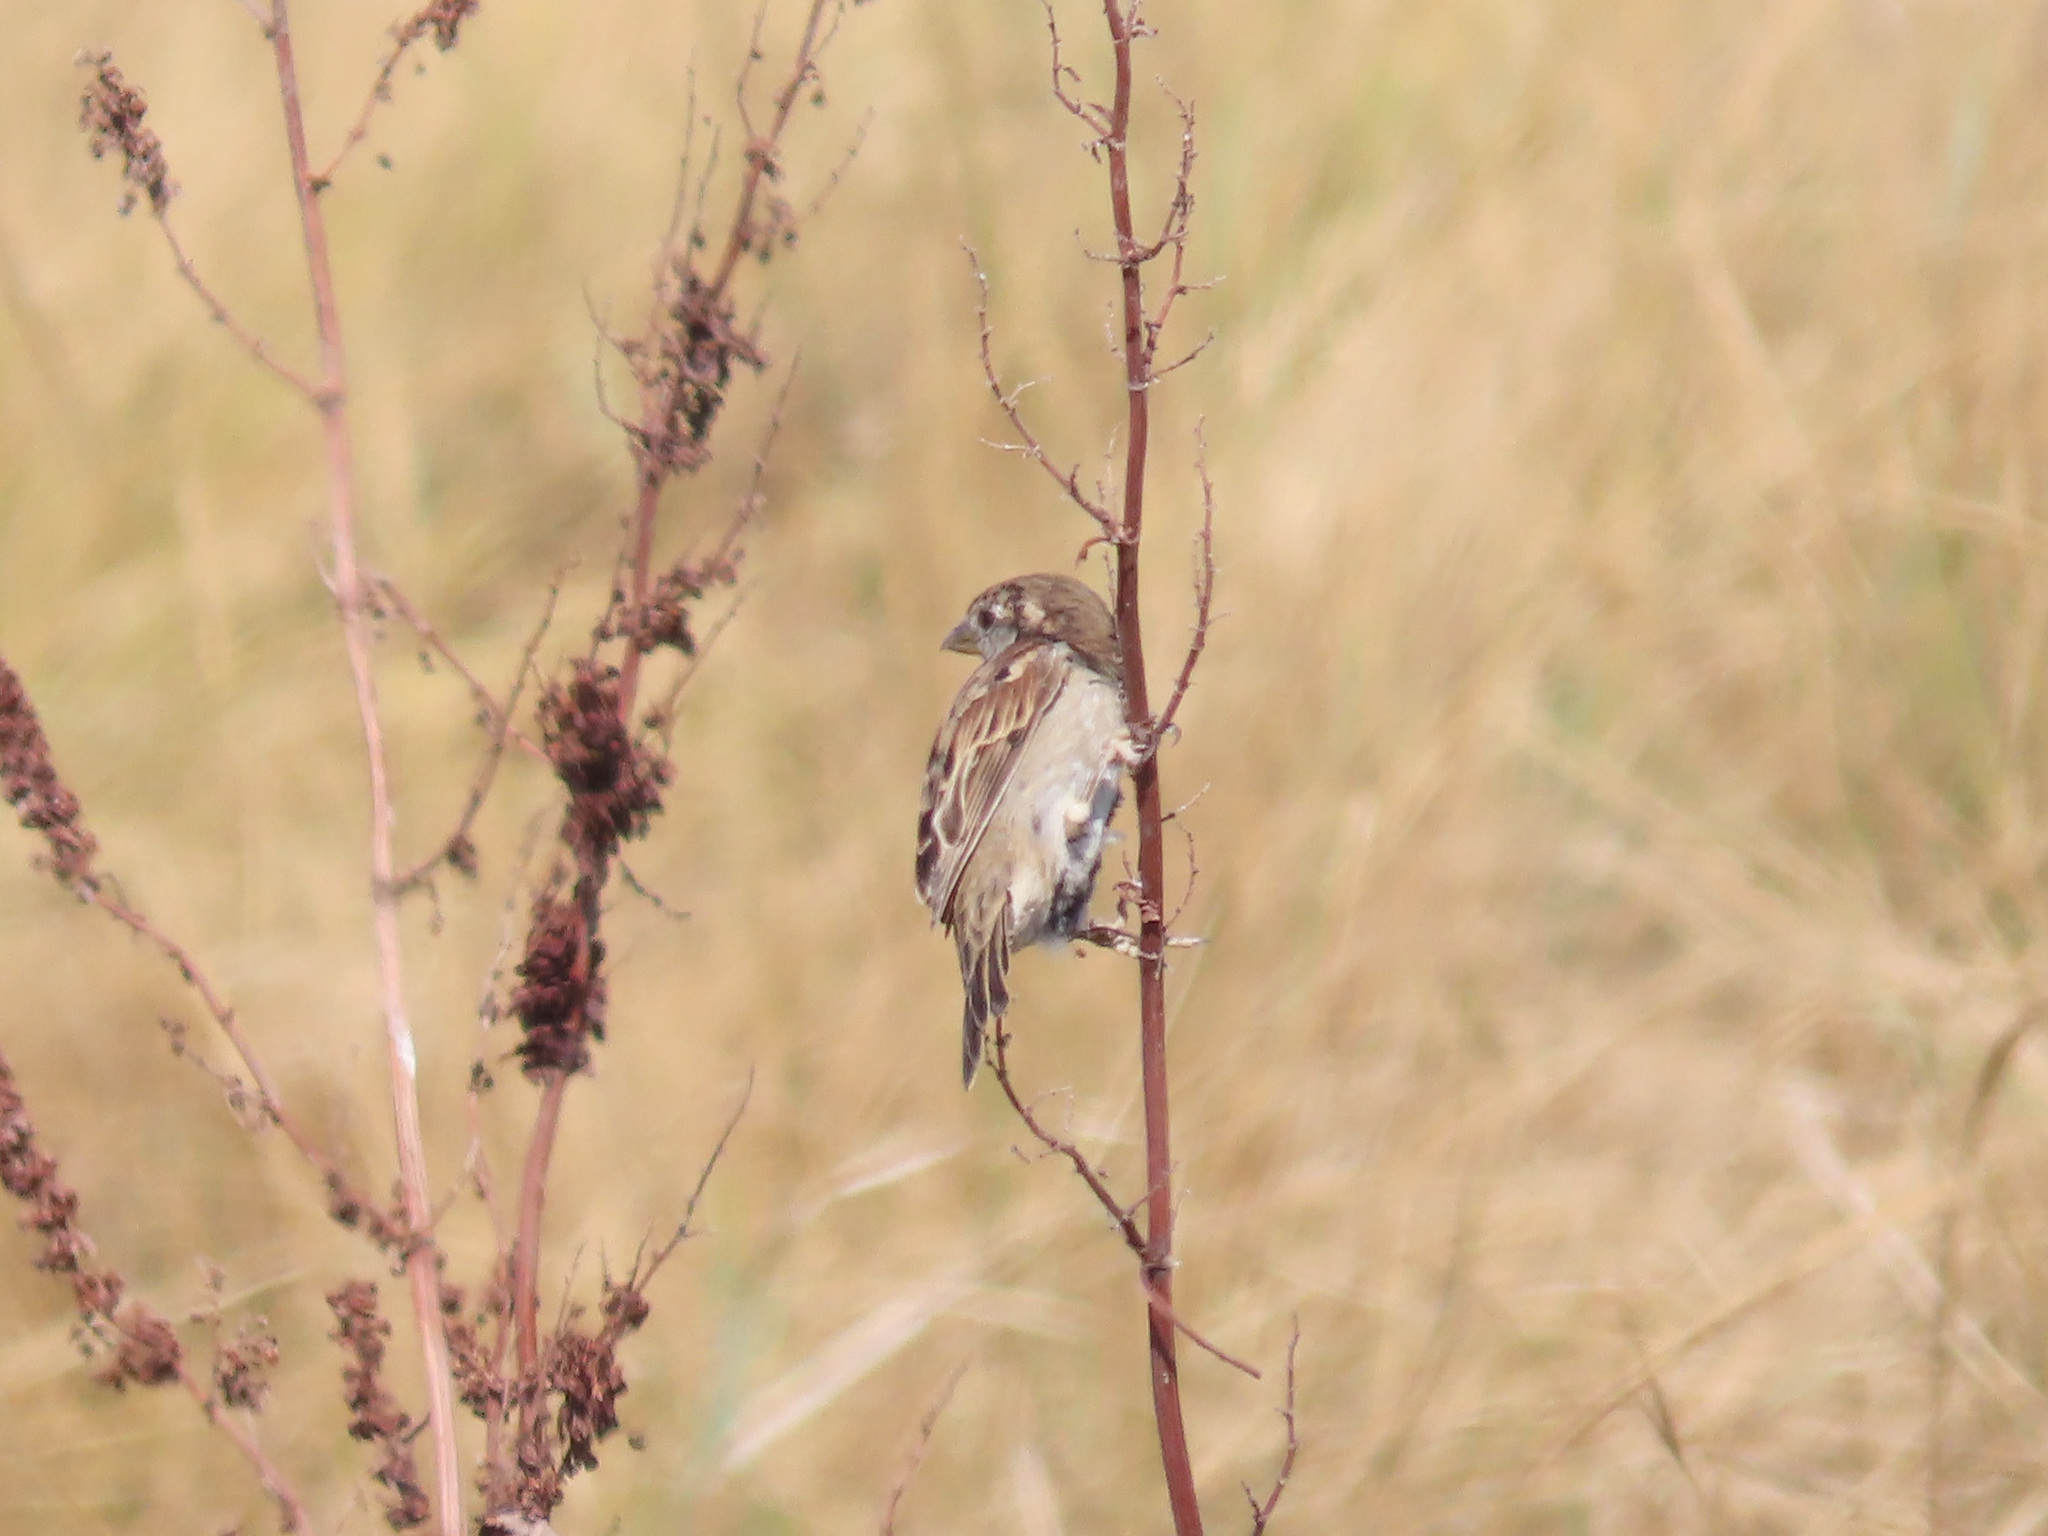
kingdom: Animalia
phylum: Chordata
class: Aves
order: Passeriformes
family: Passeridae
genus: Passer
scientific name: Passer italiae
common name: Italian sparrow
